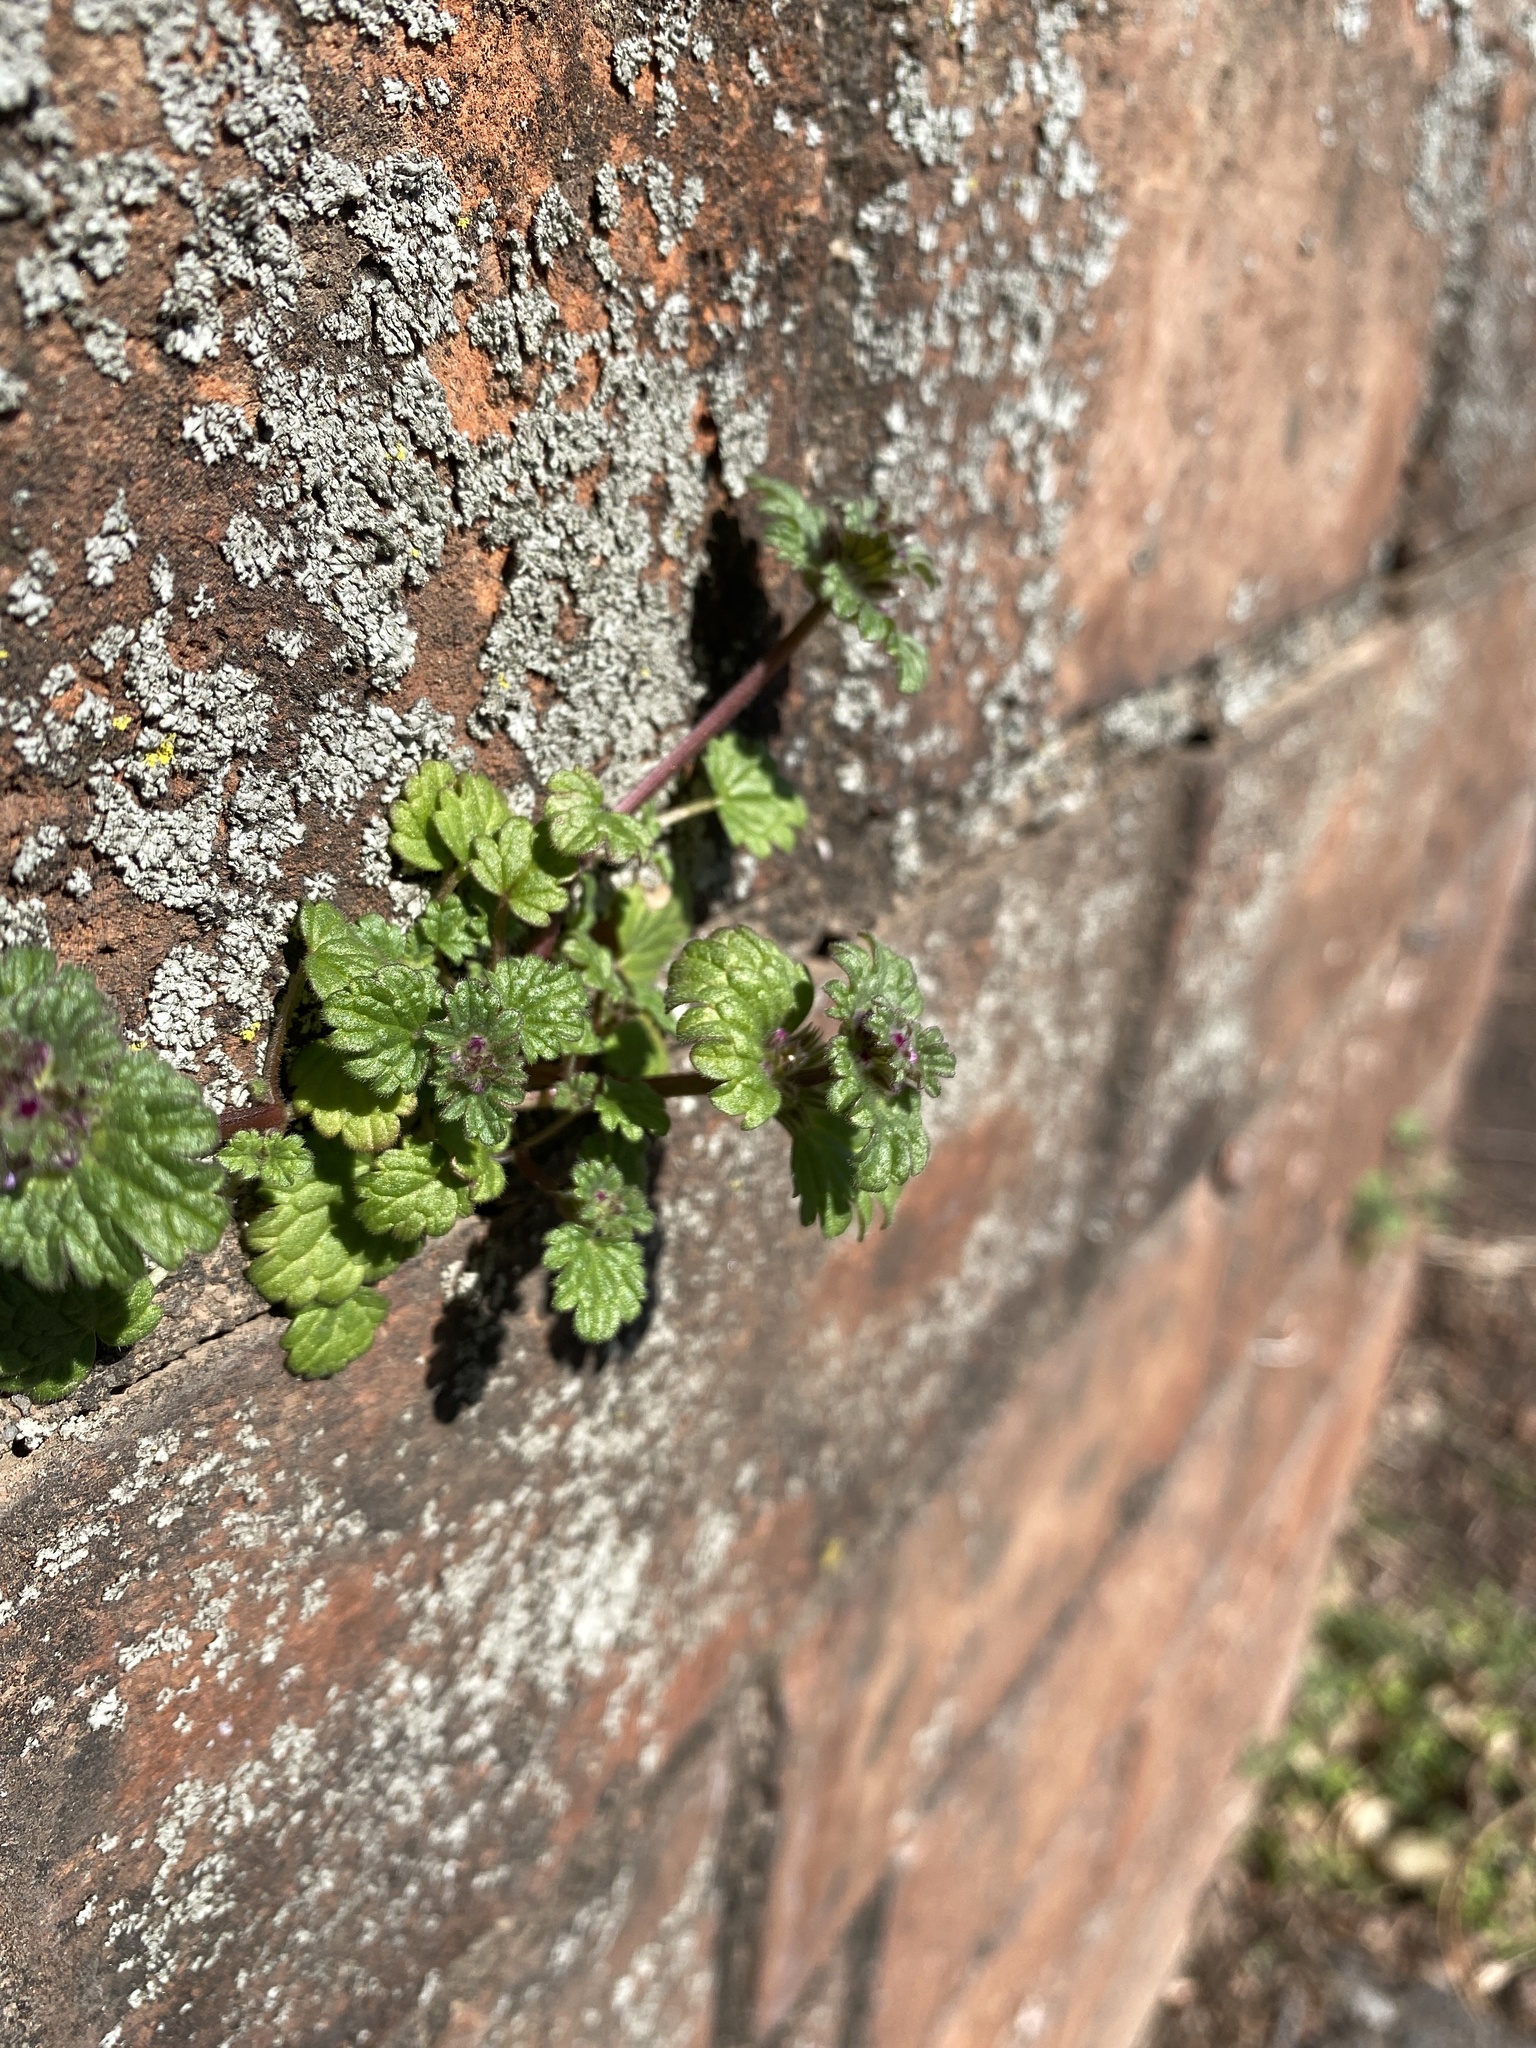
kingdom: Plantae
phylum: Tracheophyta
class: Magnoliopsida
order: Lamiales
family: Lamiaceae
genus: Lamium
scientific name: Lamium amplexicaule
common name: Henbit dead-nettle
